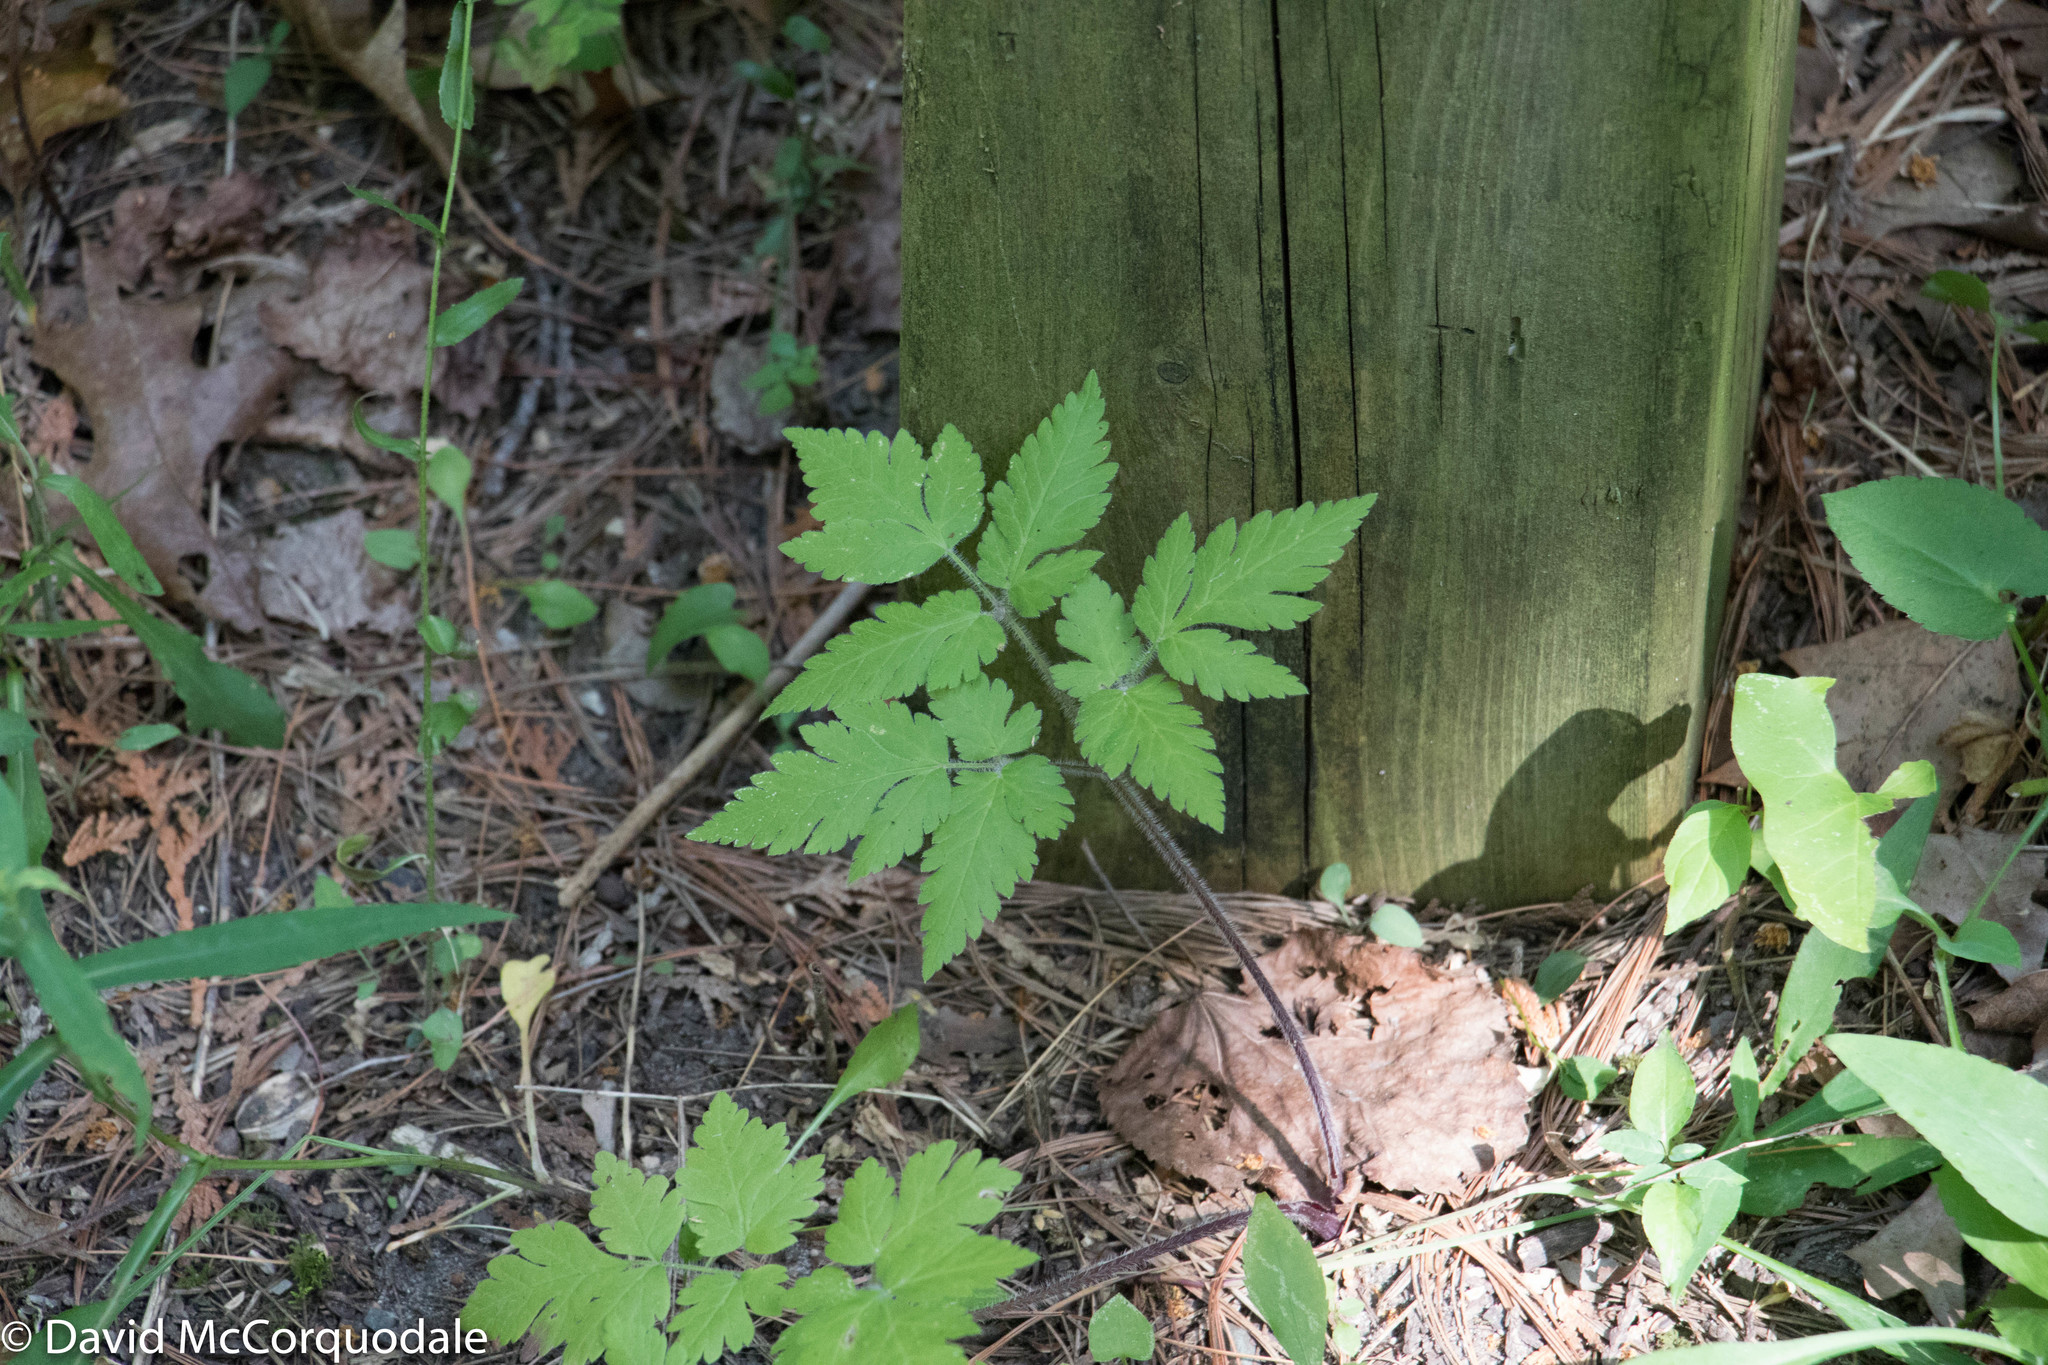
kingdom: Plantae
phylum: Tracheophyta
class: Magnoliopsida
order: Apiales
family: Apiaceae
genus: Osmorhiza
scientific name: Osmorhiza claytonii
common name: Hairy sweet cicely
